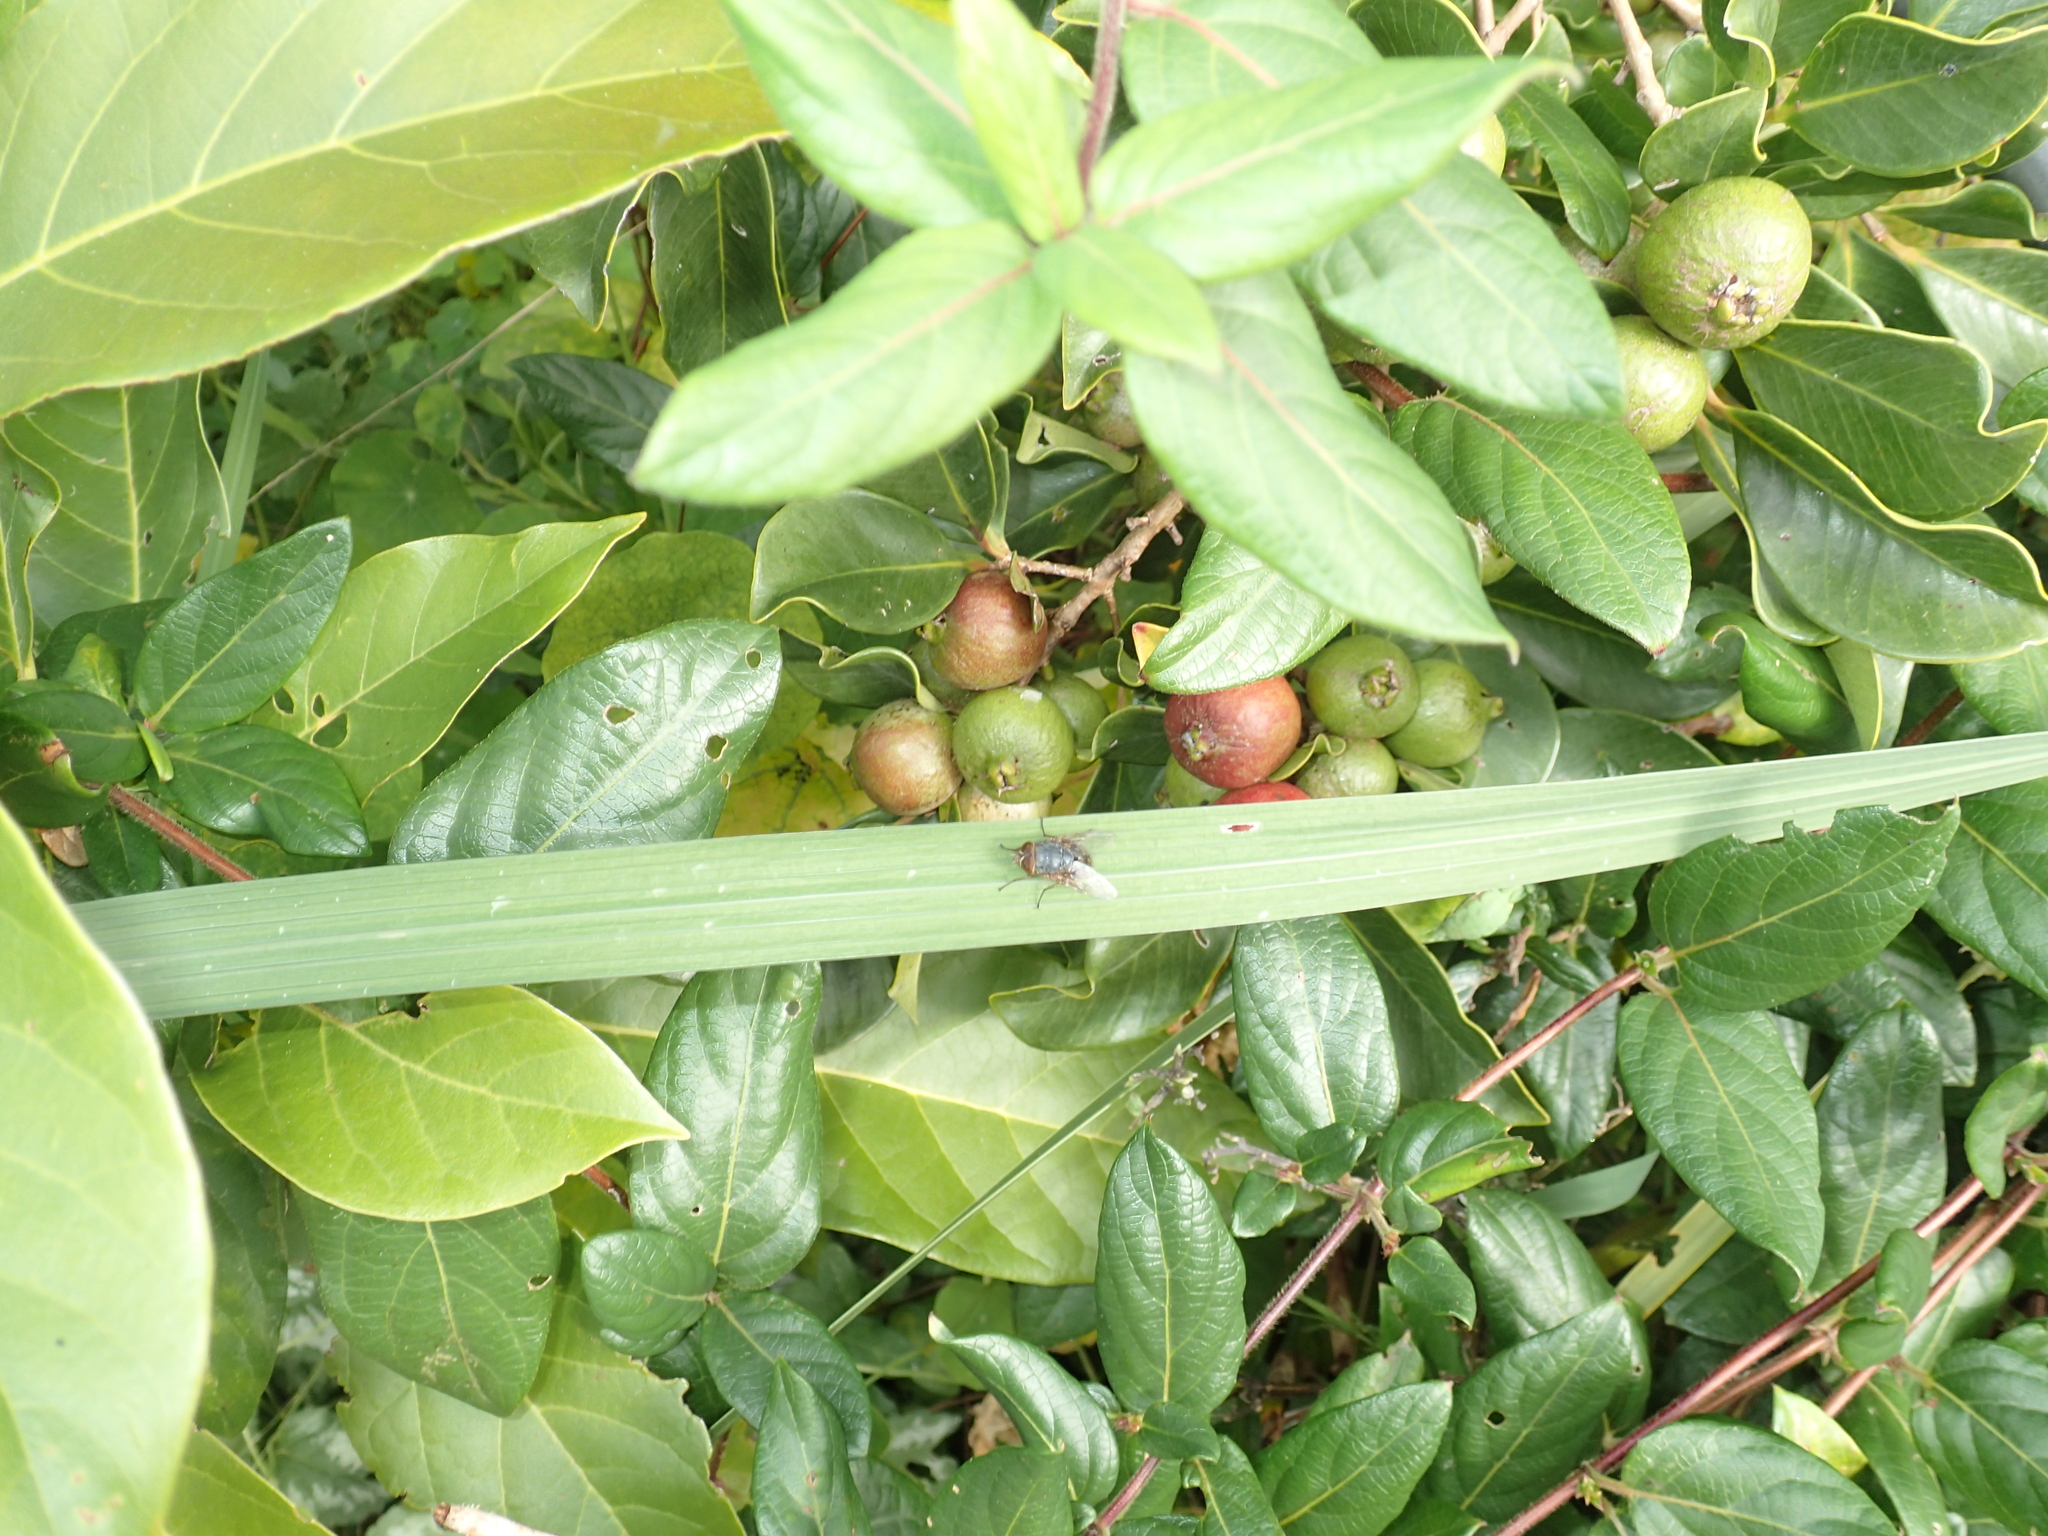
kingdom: Plantae
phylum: Tracheophyta
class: Magnoliopsida
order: Myrtales
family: Myrtaceae
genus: Psidium
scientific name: Psidium cattleianum
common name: Strawberry guava
